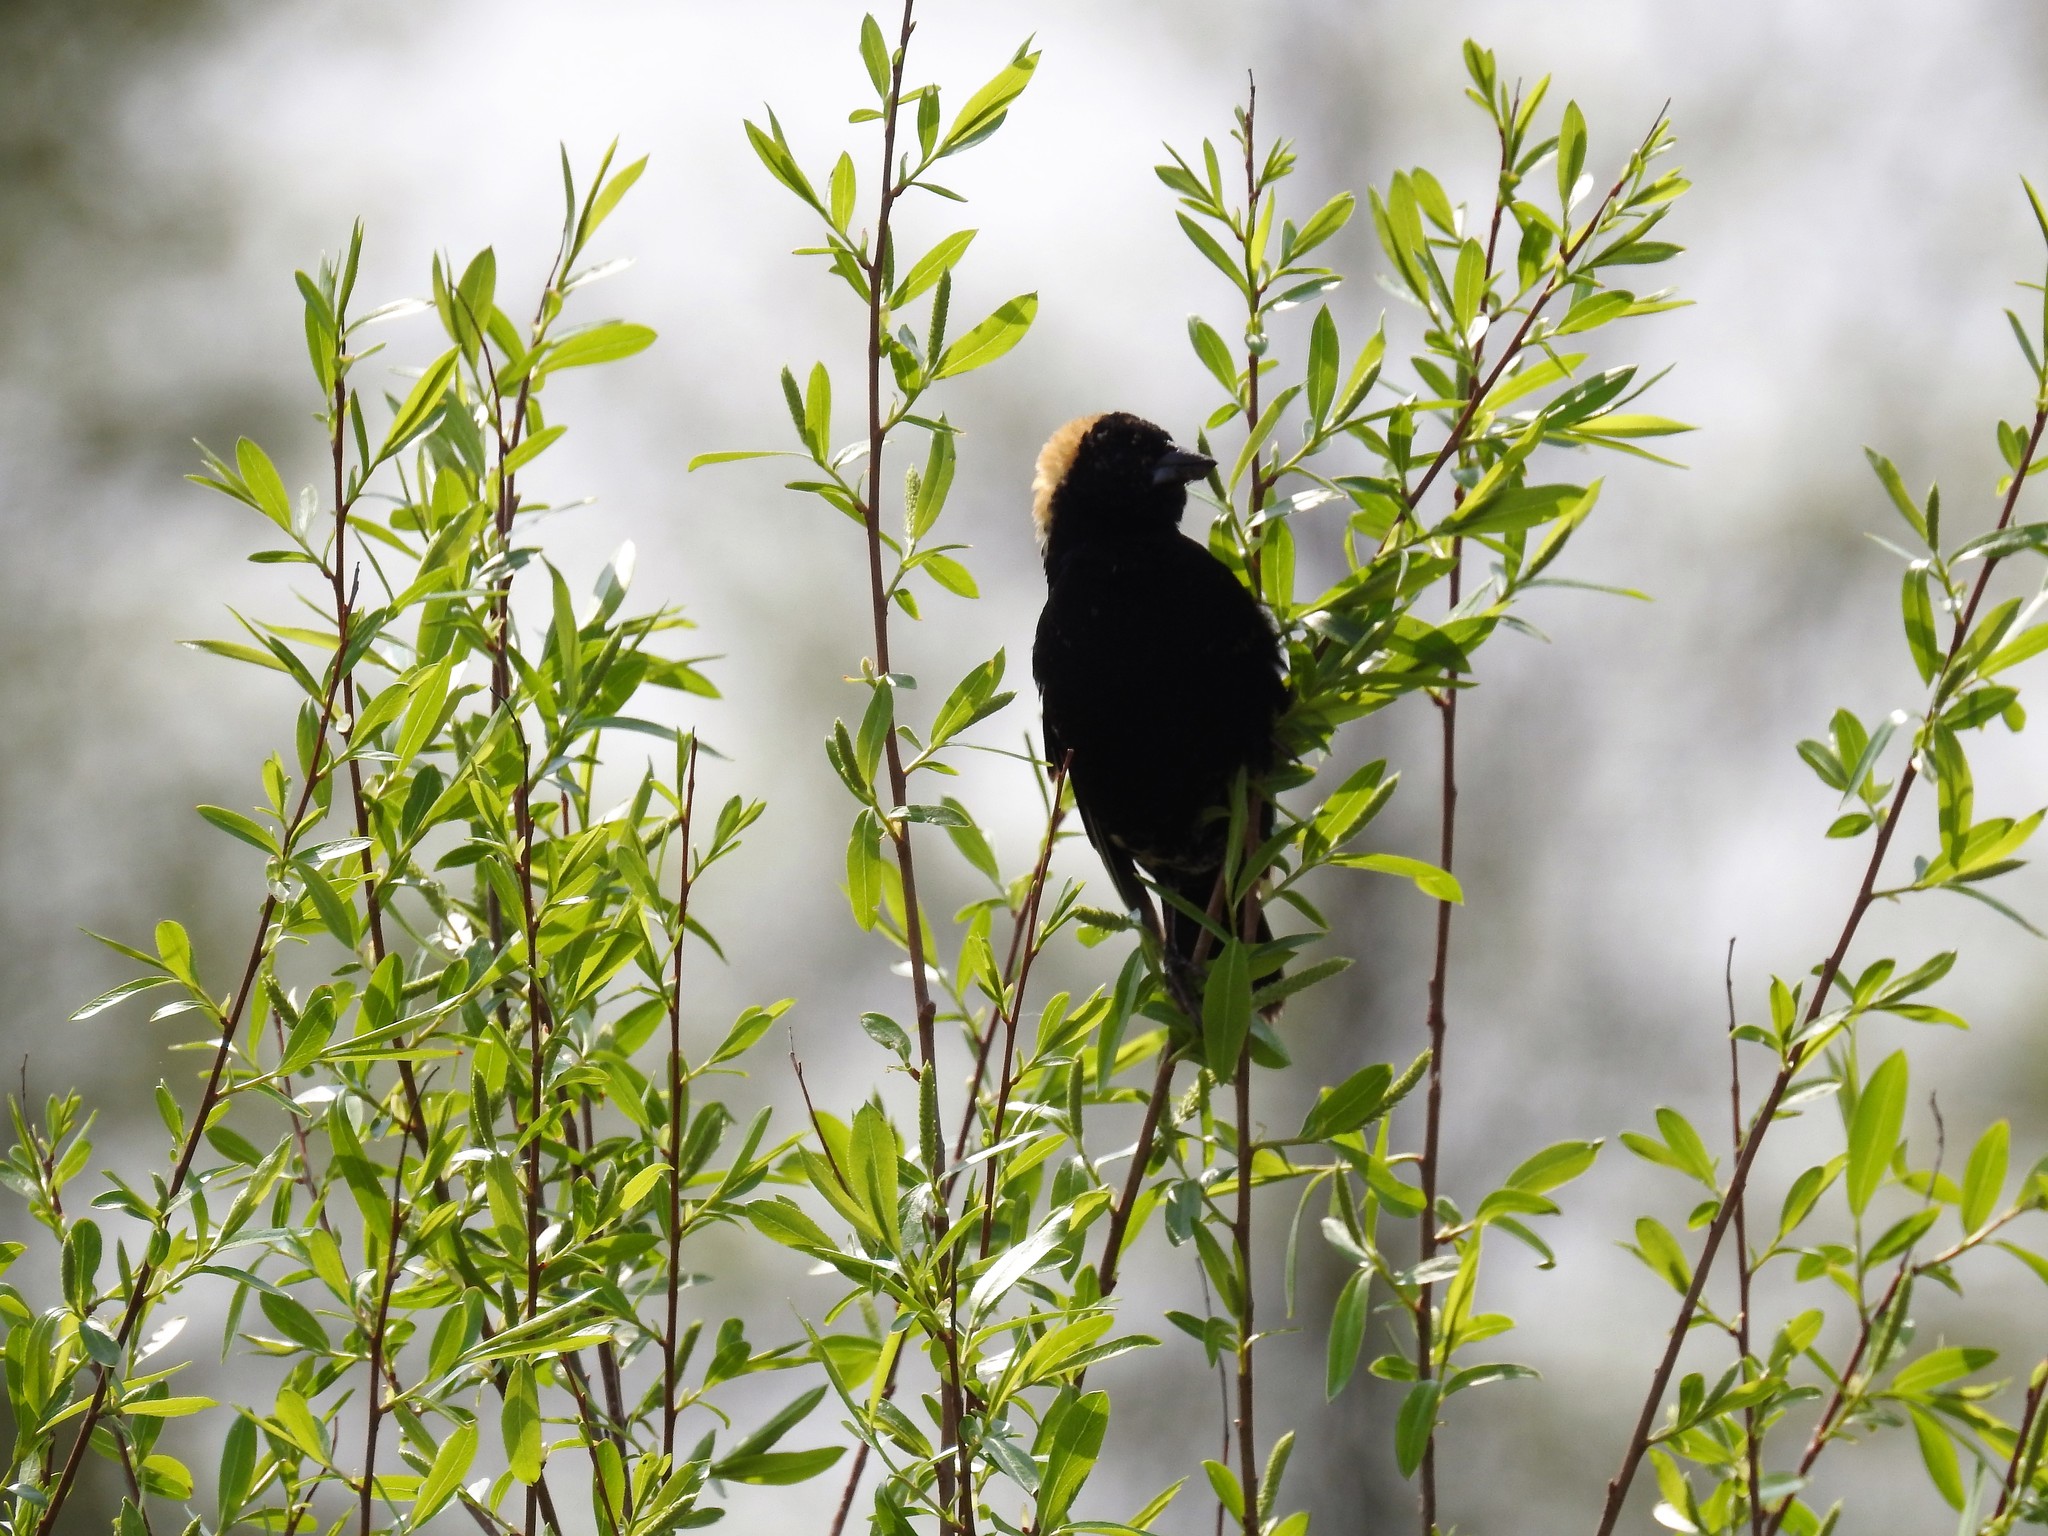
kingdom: Animalia
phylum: Chordata
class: Aves
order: Passeriformes
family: Icteridae
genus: Dolichonyx
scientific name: Dolichonyx oryzivorus
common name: Bobolink
